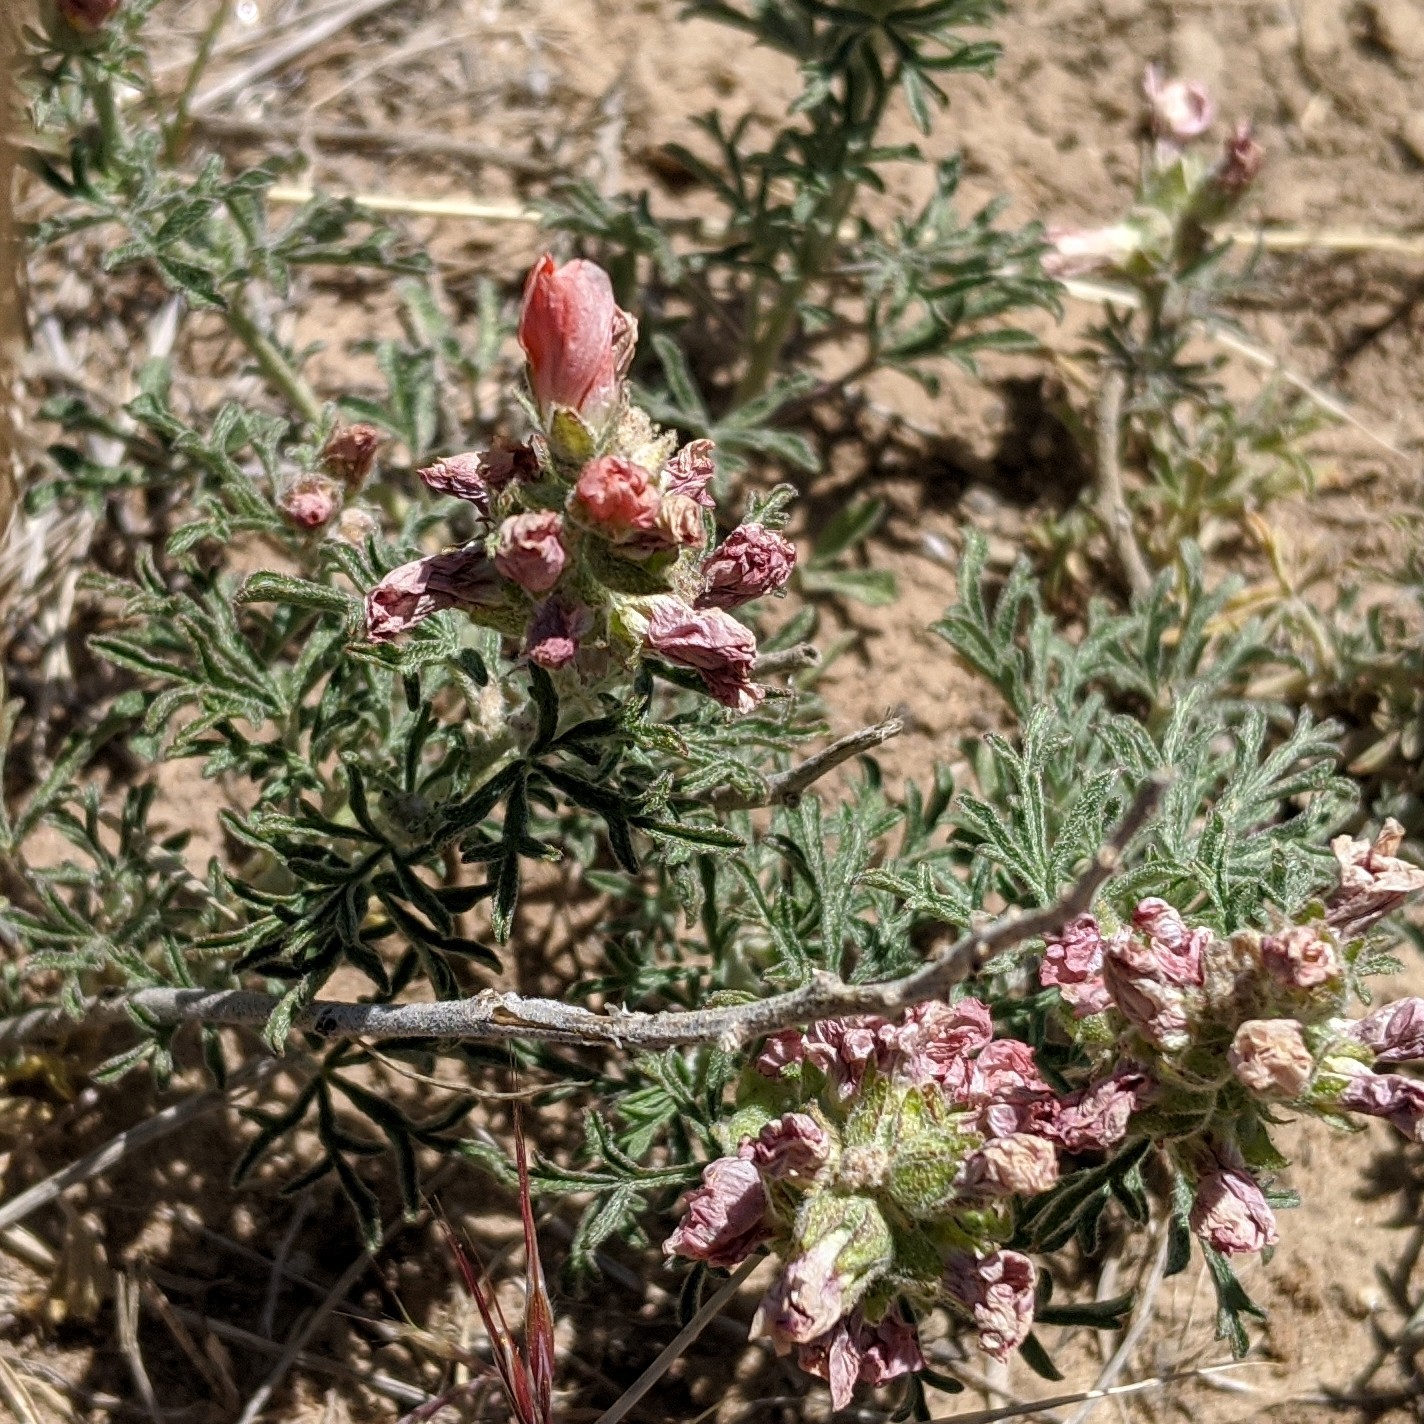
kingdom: Plantae
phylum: Tracheophyta
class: Magnoliopsida
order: Malvales
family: Malvaceae
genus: Sphaeralcea
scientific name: Sphaeralcea coccinea
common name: Moss-rose
